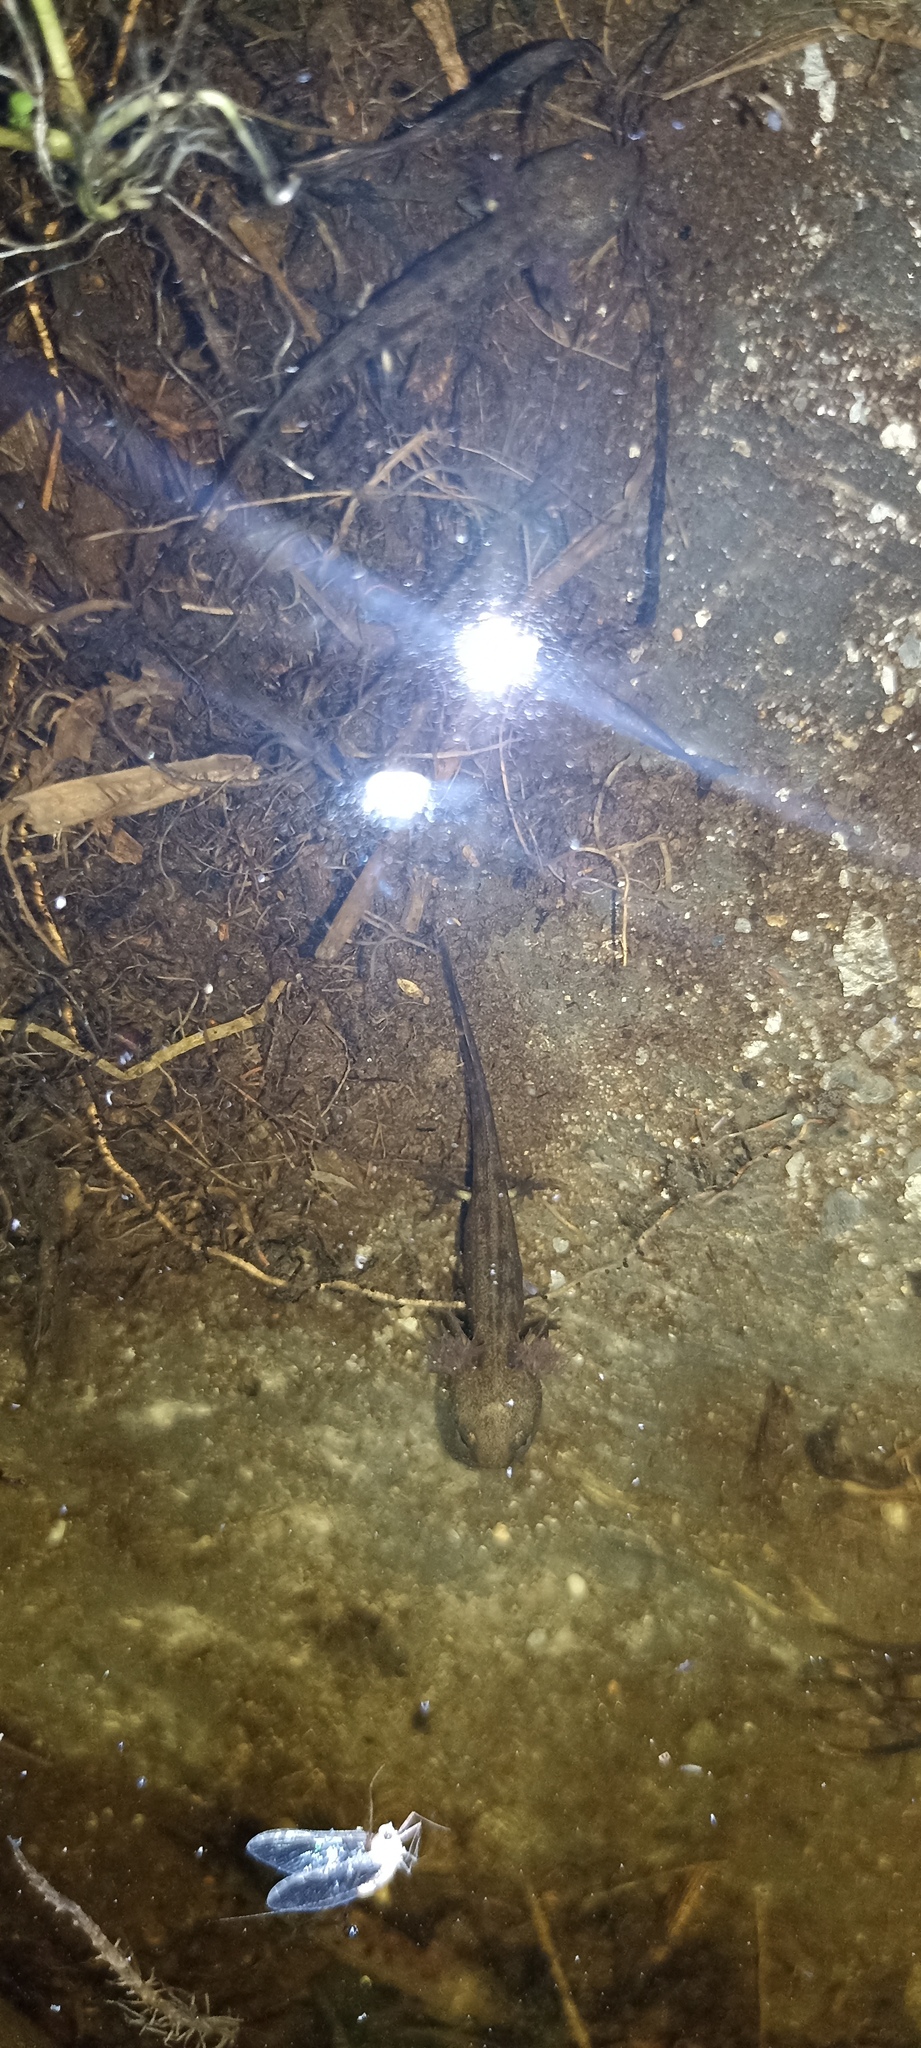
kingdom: Animalia
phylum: Chordata
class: Amphibia
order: Caudata
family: Salamandridae
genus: Salamandra
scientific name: Salamandra salamandra
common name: Fire salamander
